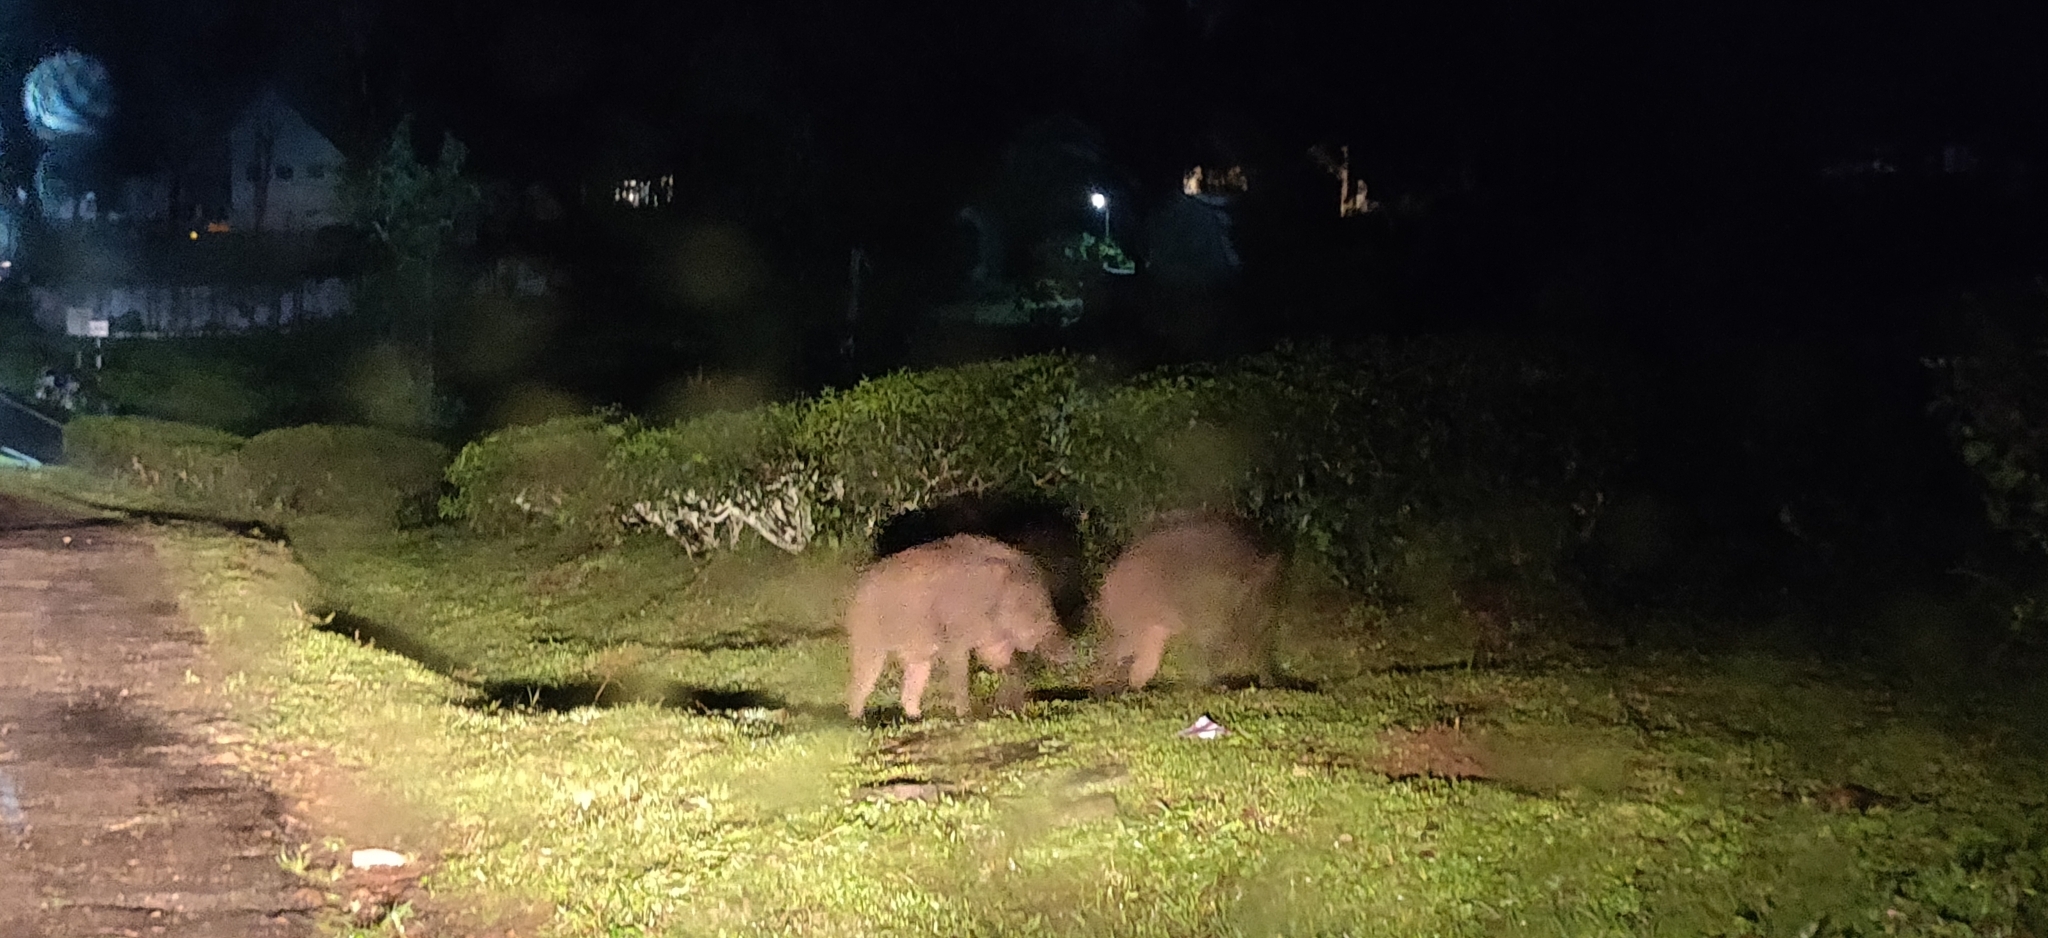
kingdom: Animalia
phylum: Chordata
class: Mammalia
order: Artiodactyla
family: Suidae
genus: Sus
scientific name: Sus scrofa
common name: Wild boar
